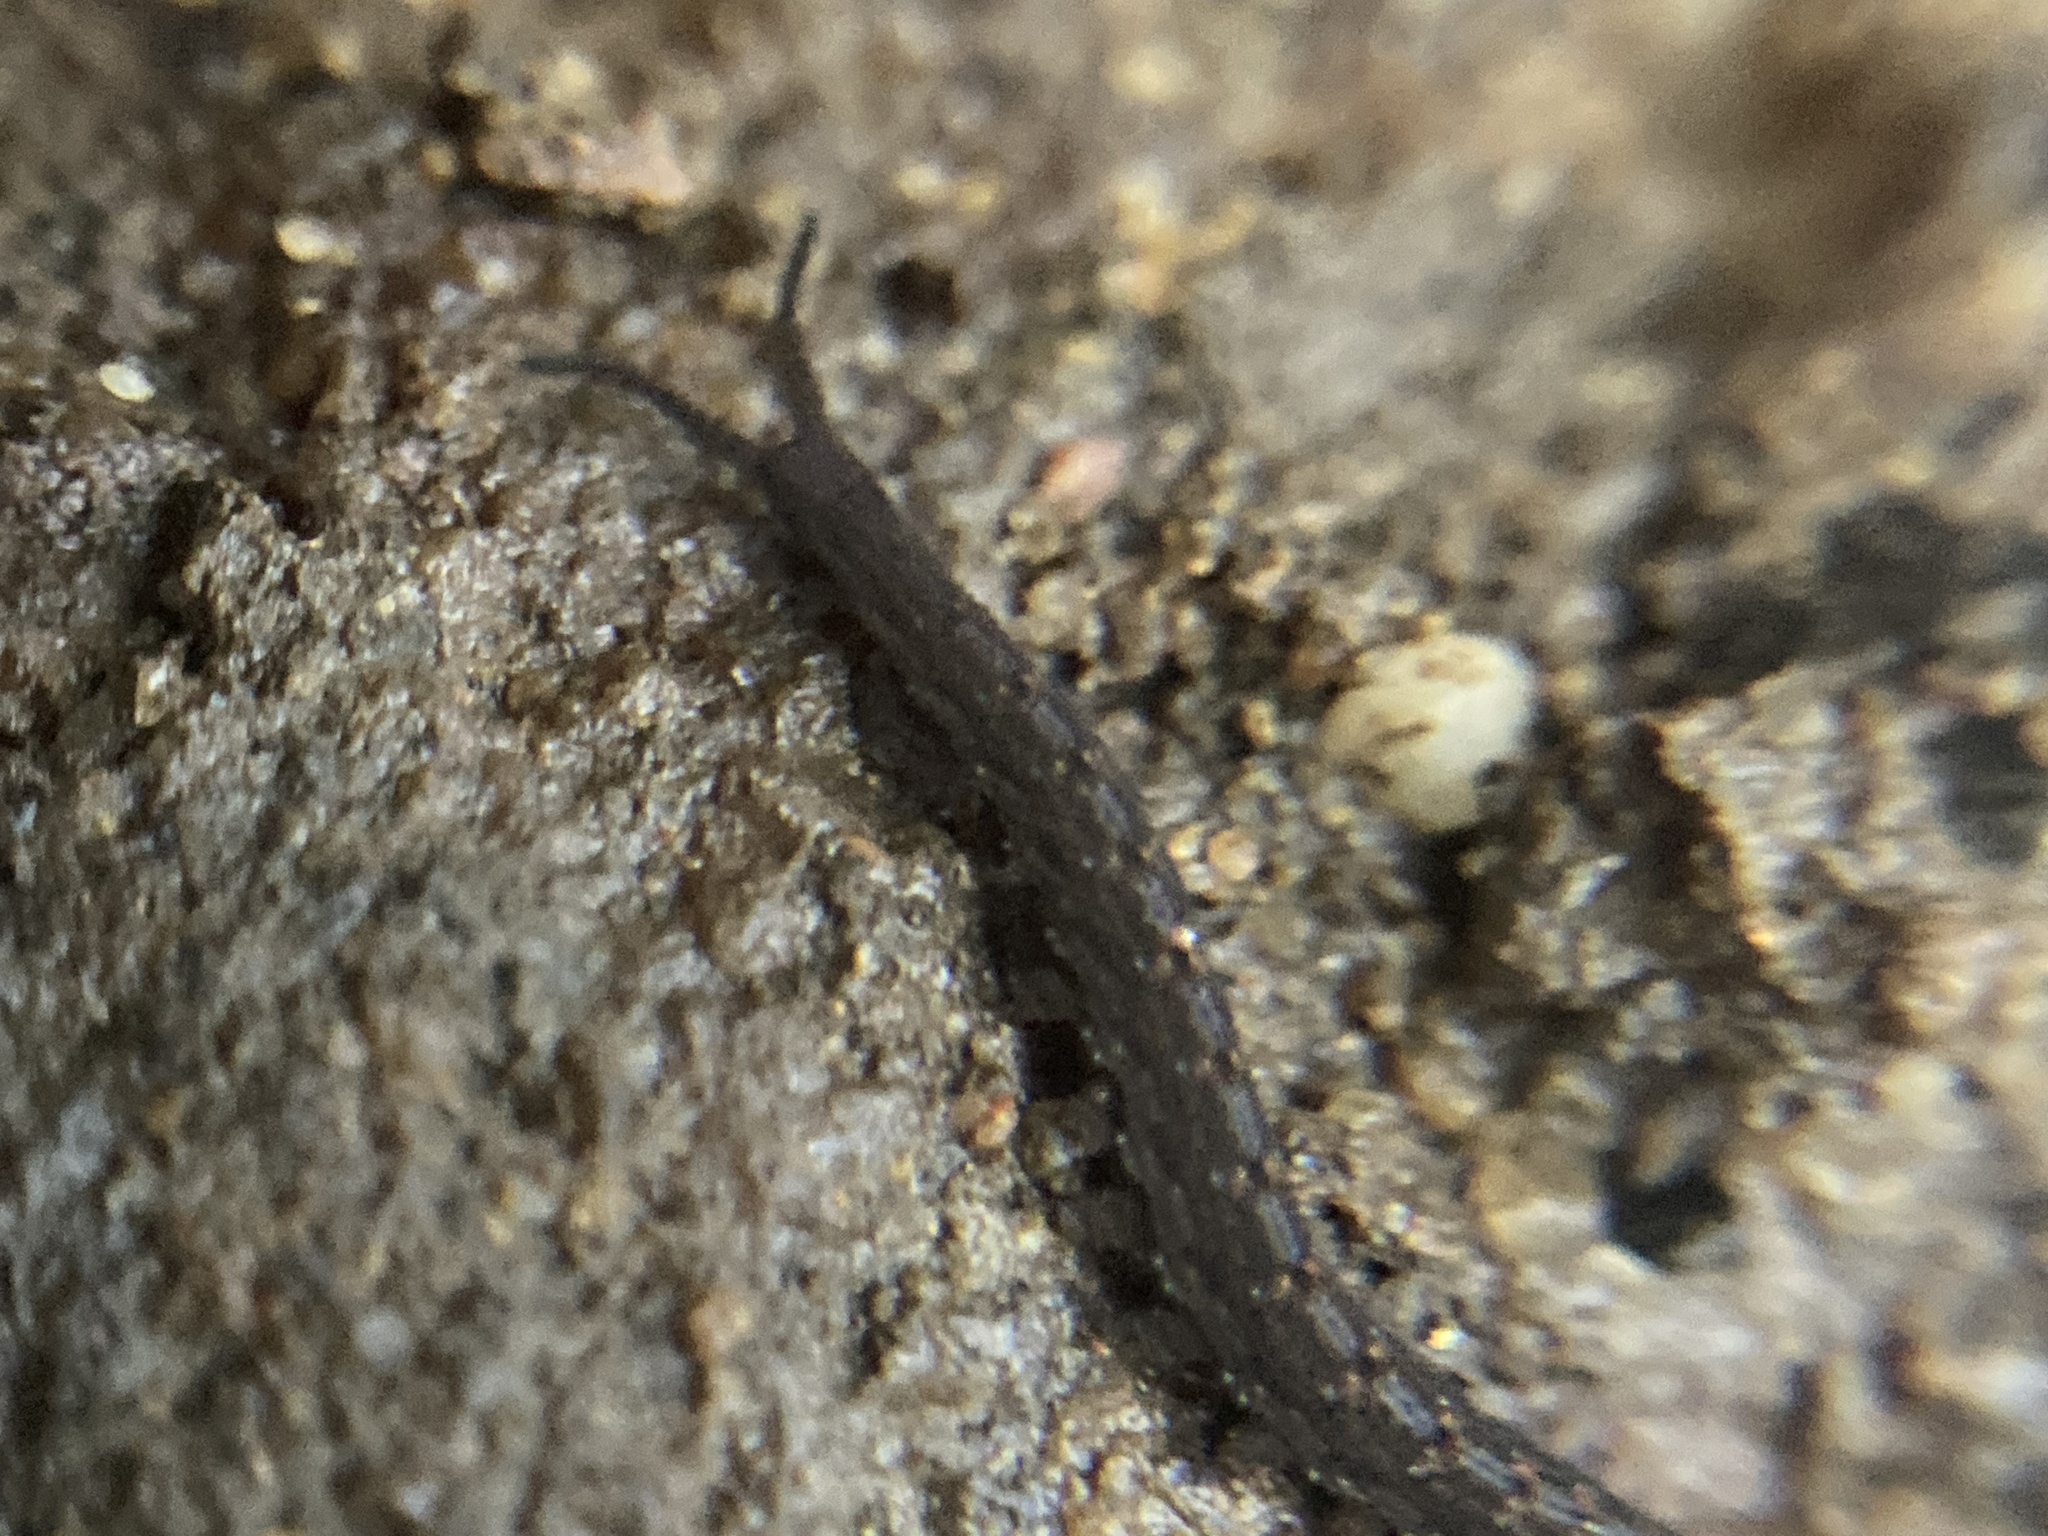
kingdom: Animalia
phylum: Onychophora
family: Peripatopsidae
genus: Anoplokaros
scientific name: Anoplokaros keerensis
